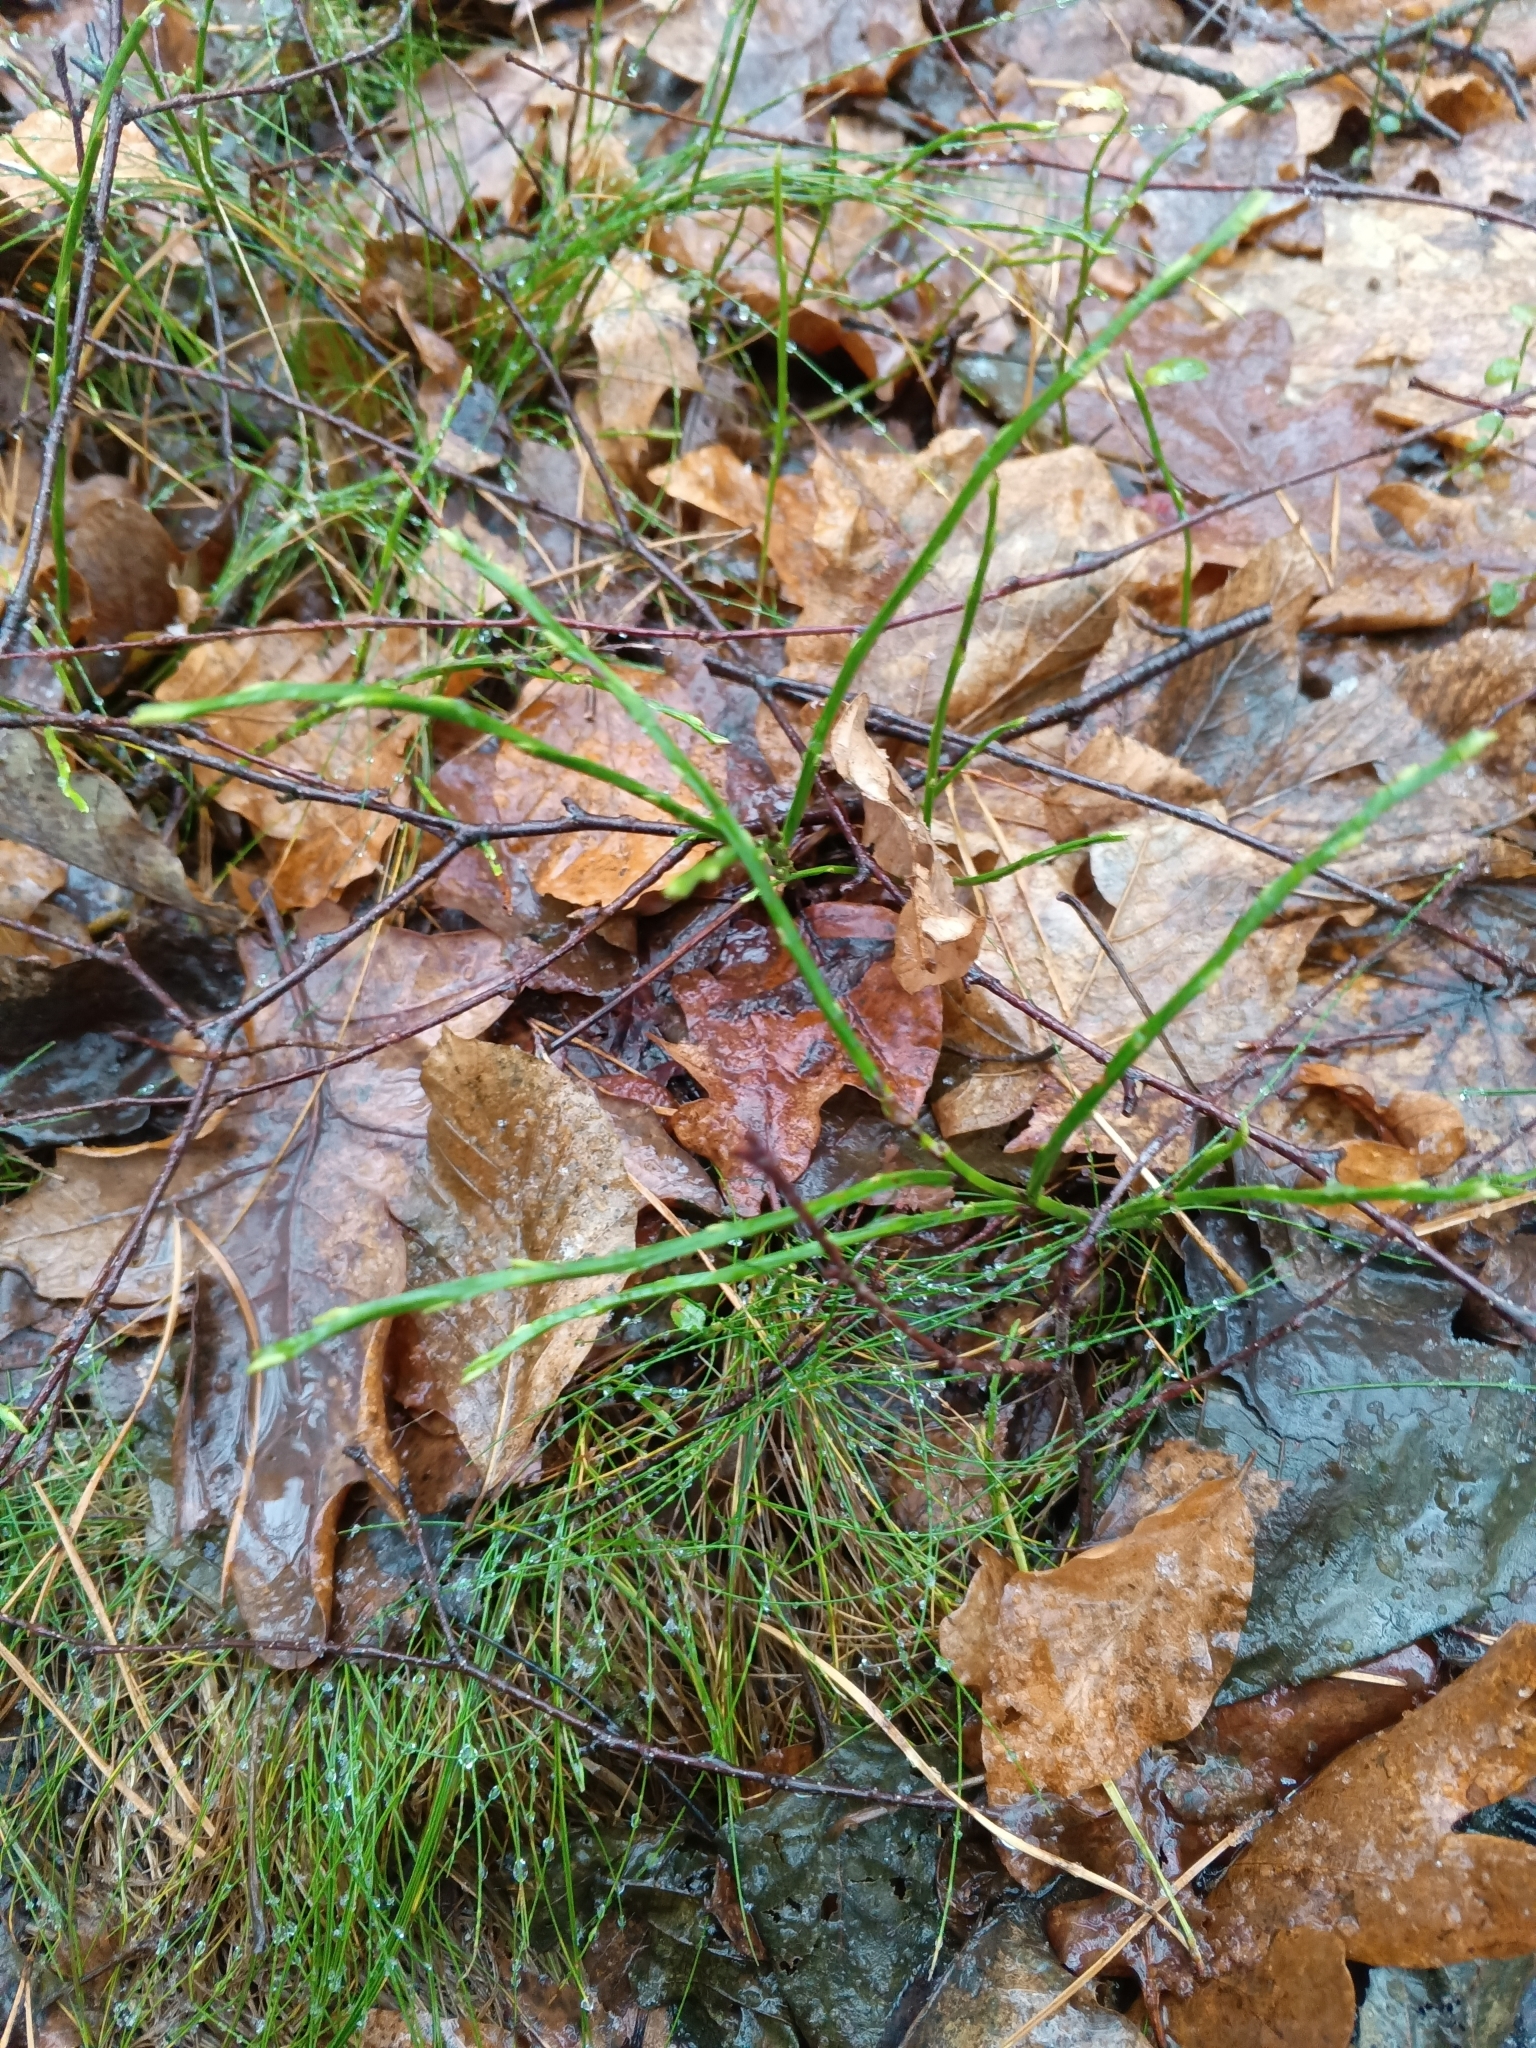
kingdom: Plantae
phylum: Tracheophyta
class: Magnoliopsida
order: Ericales
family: Ericaceae
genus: Vaccinium
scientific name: Vaccinium myrtillus
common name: Bilberry
